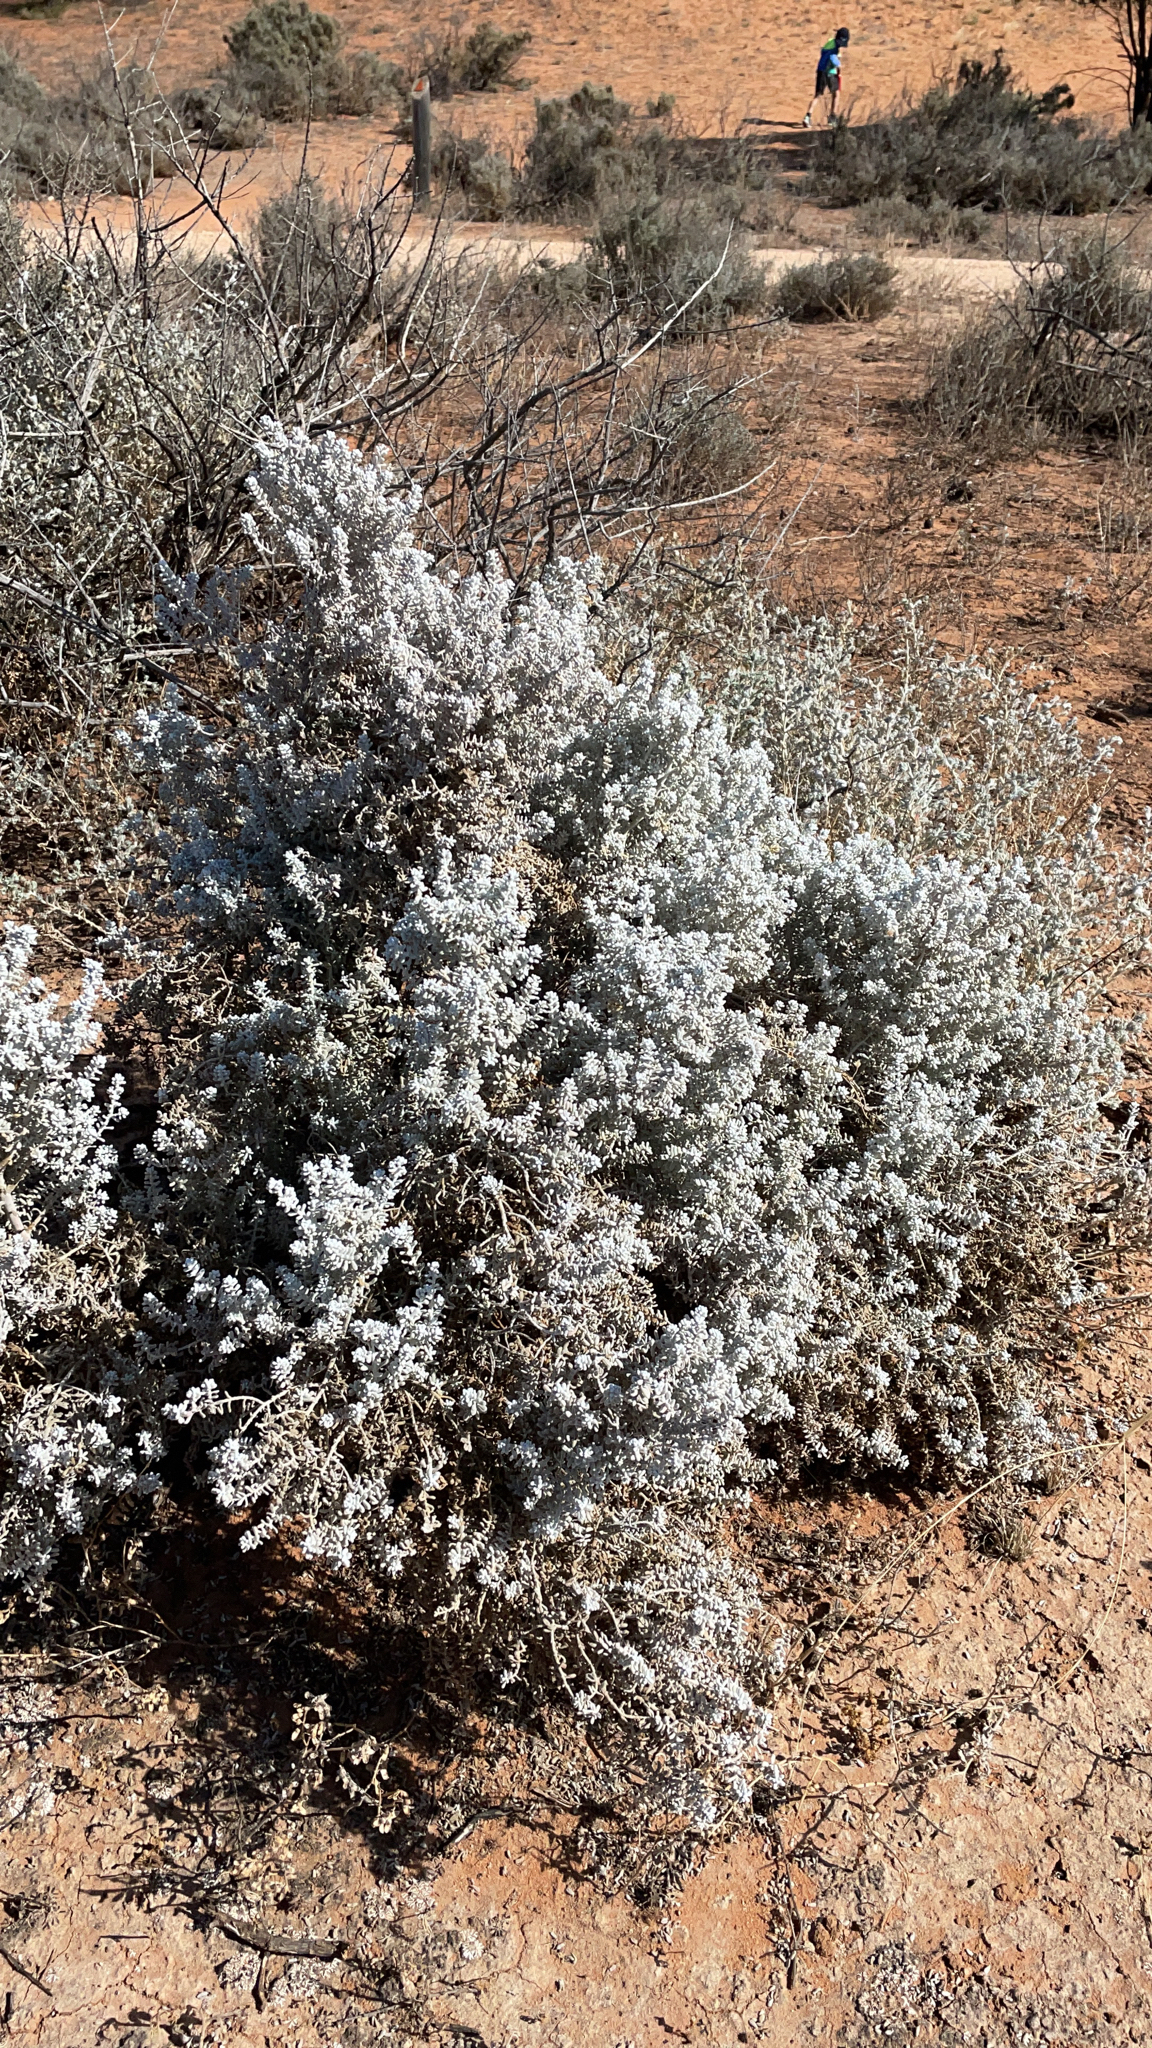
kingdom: Plantae
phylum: Tracheophyta
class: Magnoliopsida
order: Caryophyllales
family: Amaranthaceae
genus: Maireana
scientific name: Maireana sedifolia
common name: Hoary bluebush
